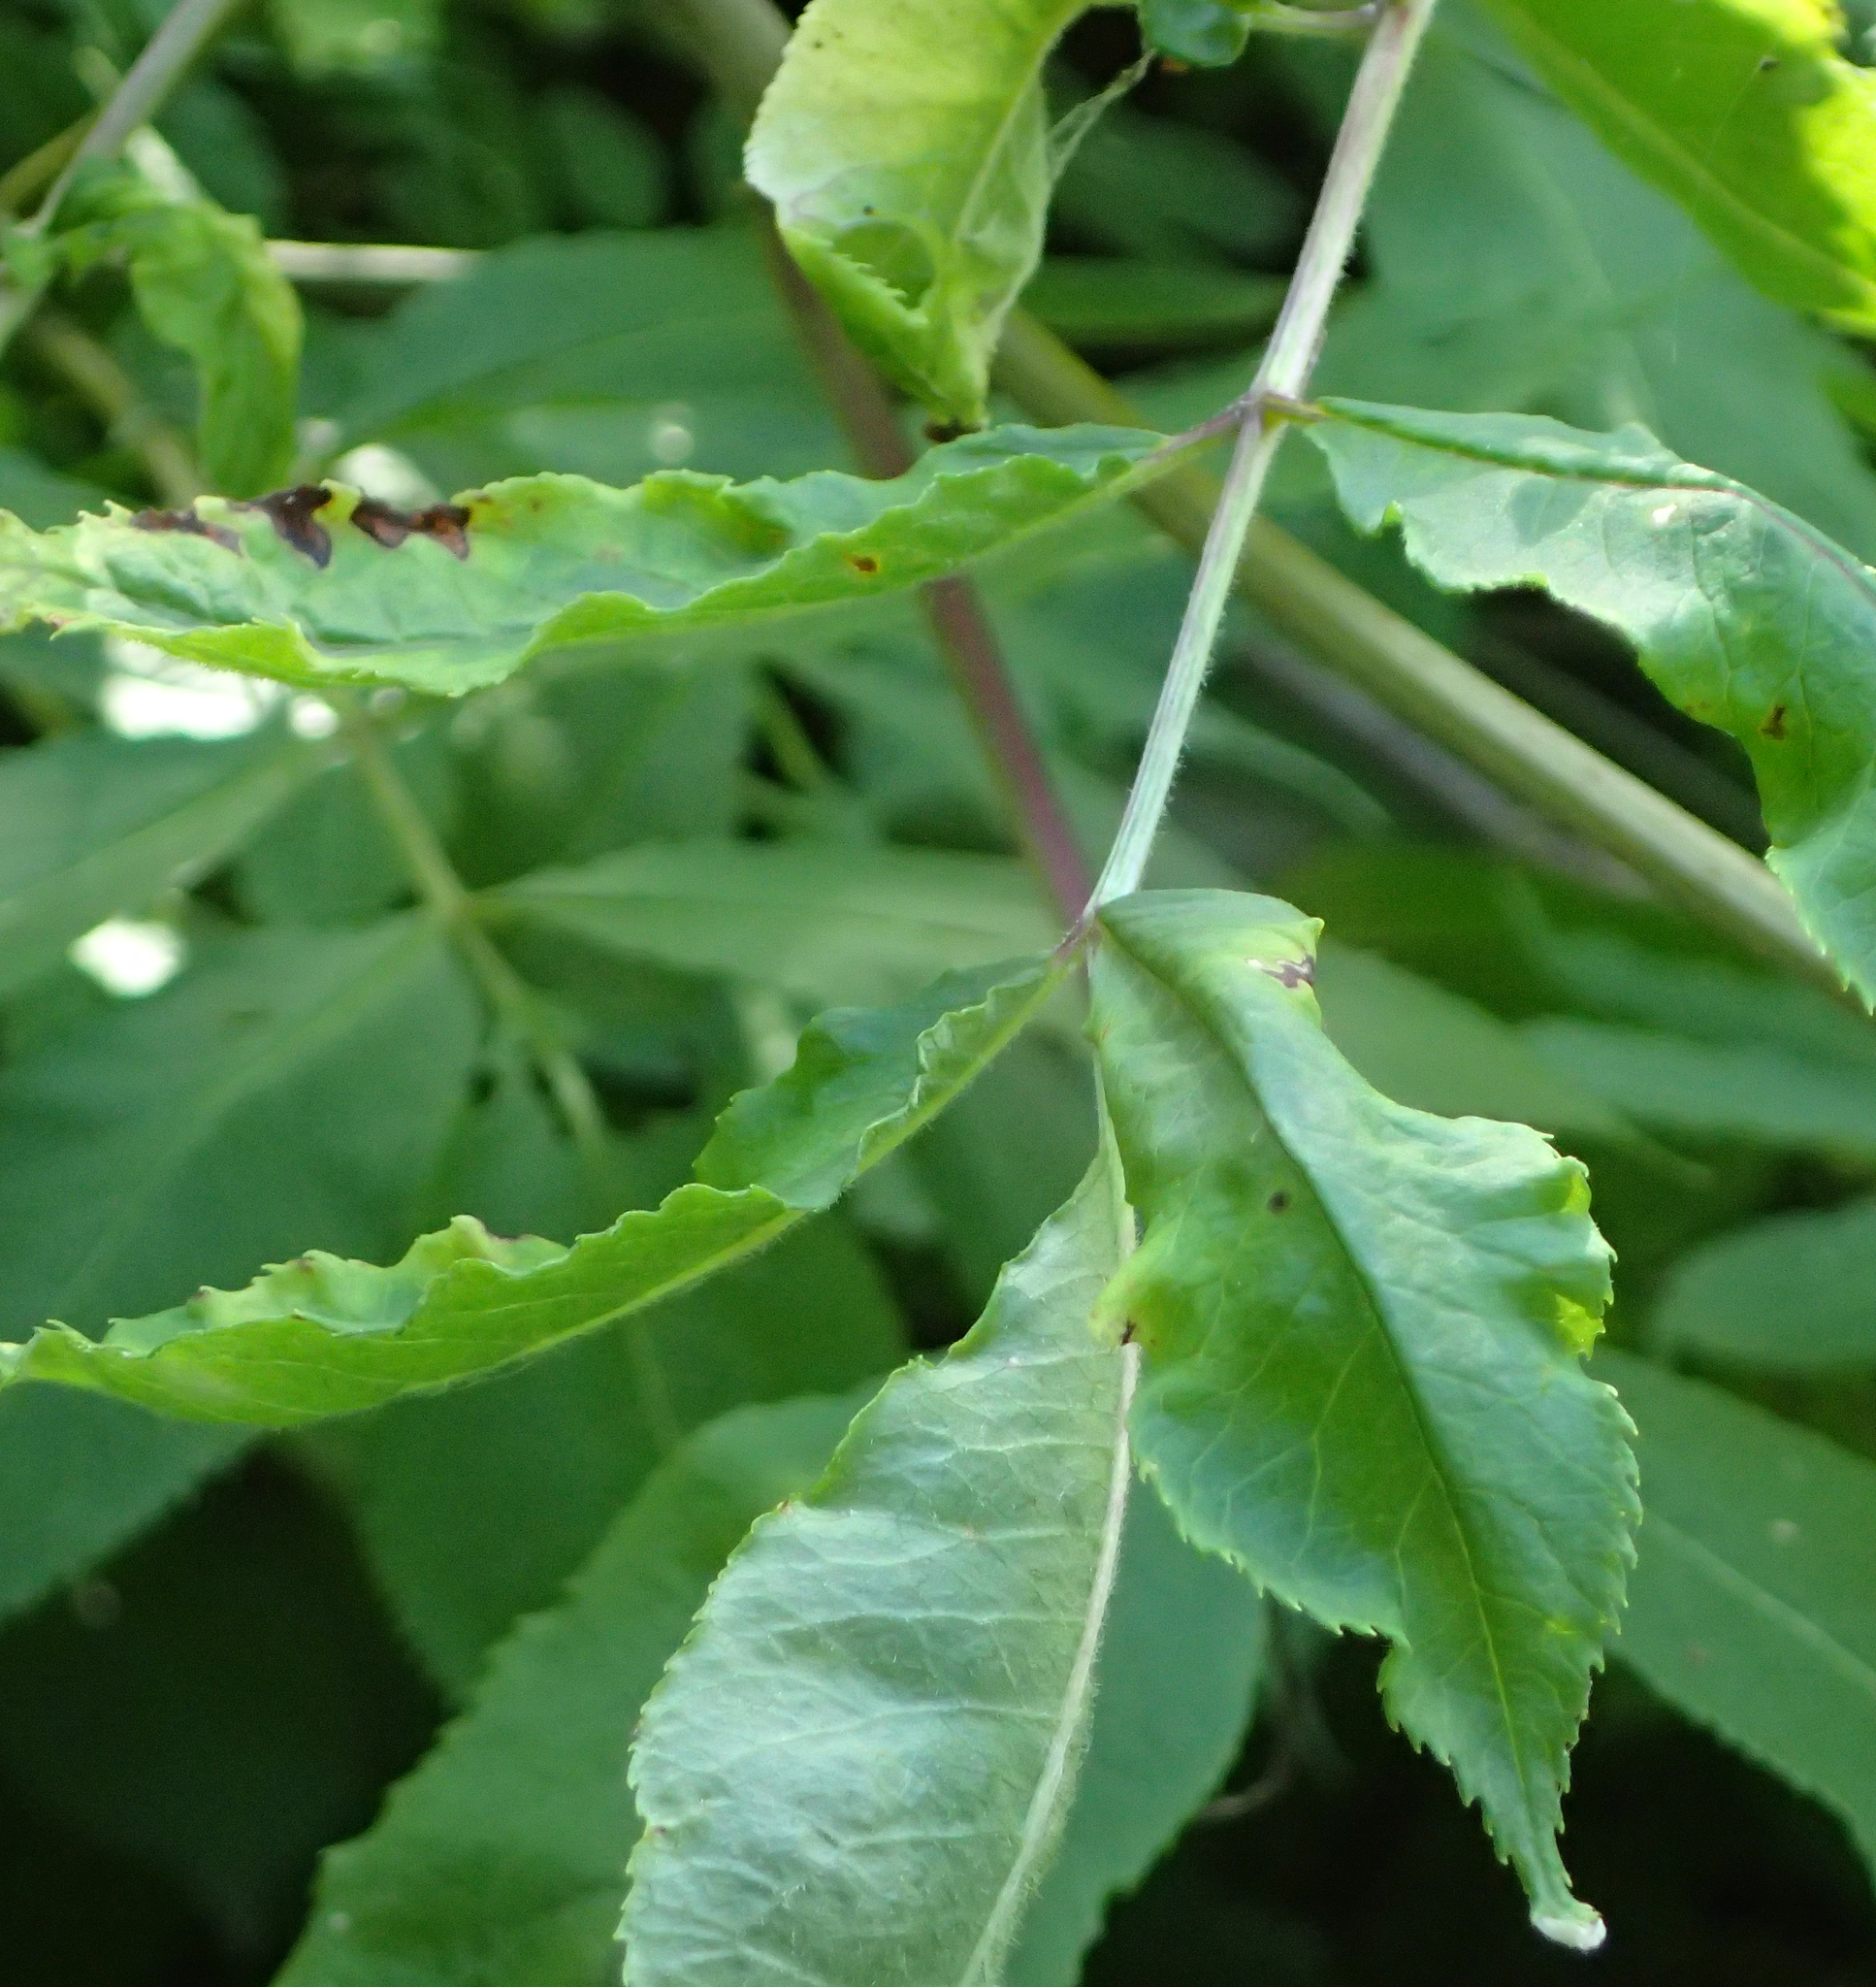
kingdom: Plantae
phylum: Tracheophyta
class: Magnoliopsida
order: Dipsacales
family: Viburnaceae
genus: Sambucus
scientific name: Sambucus racemosa
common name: Red-berried elder
